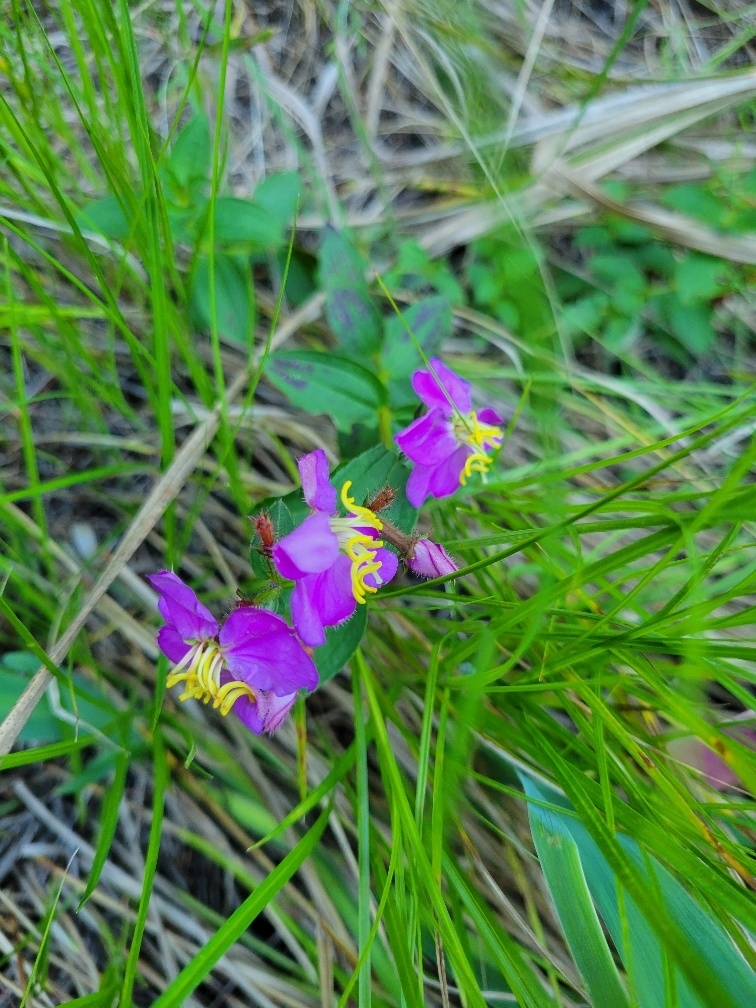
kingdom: Plantae
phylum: Tracheophyta
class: Magnoliopsida
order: Myrtales
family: Melastomataceae
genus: Rhexia
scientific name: Rhexia virginica
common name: Common meadow beauty
